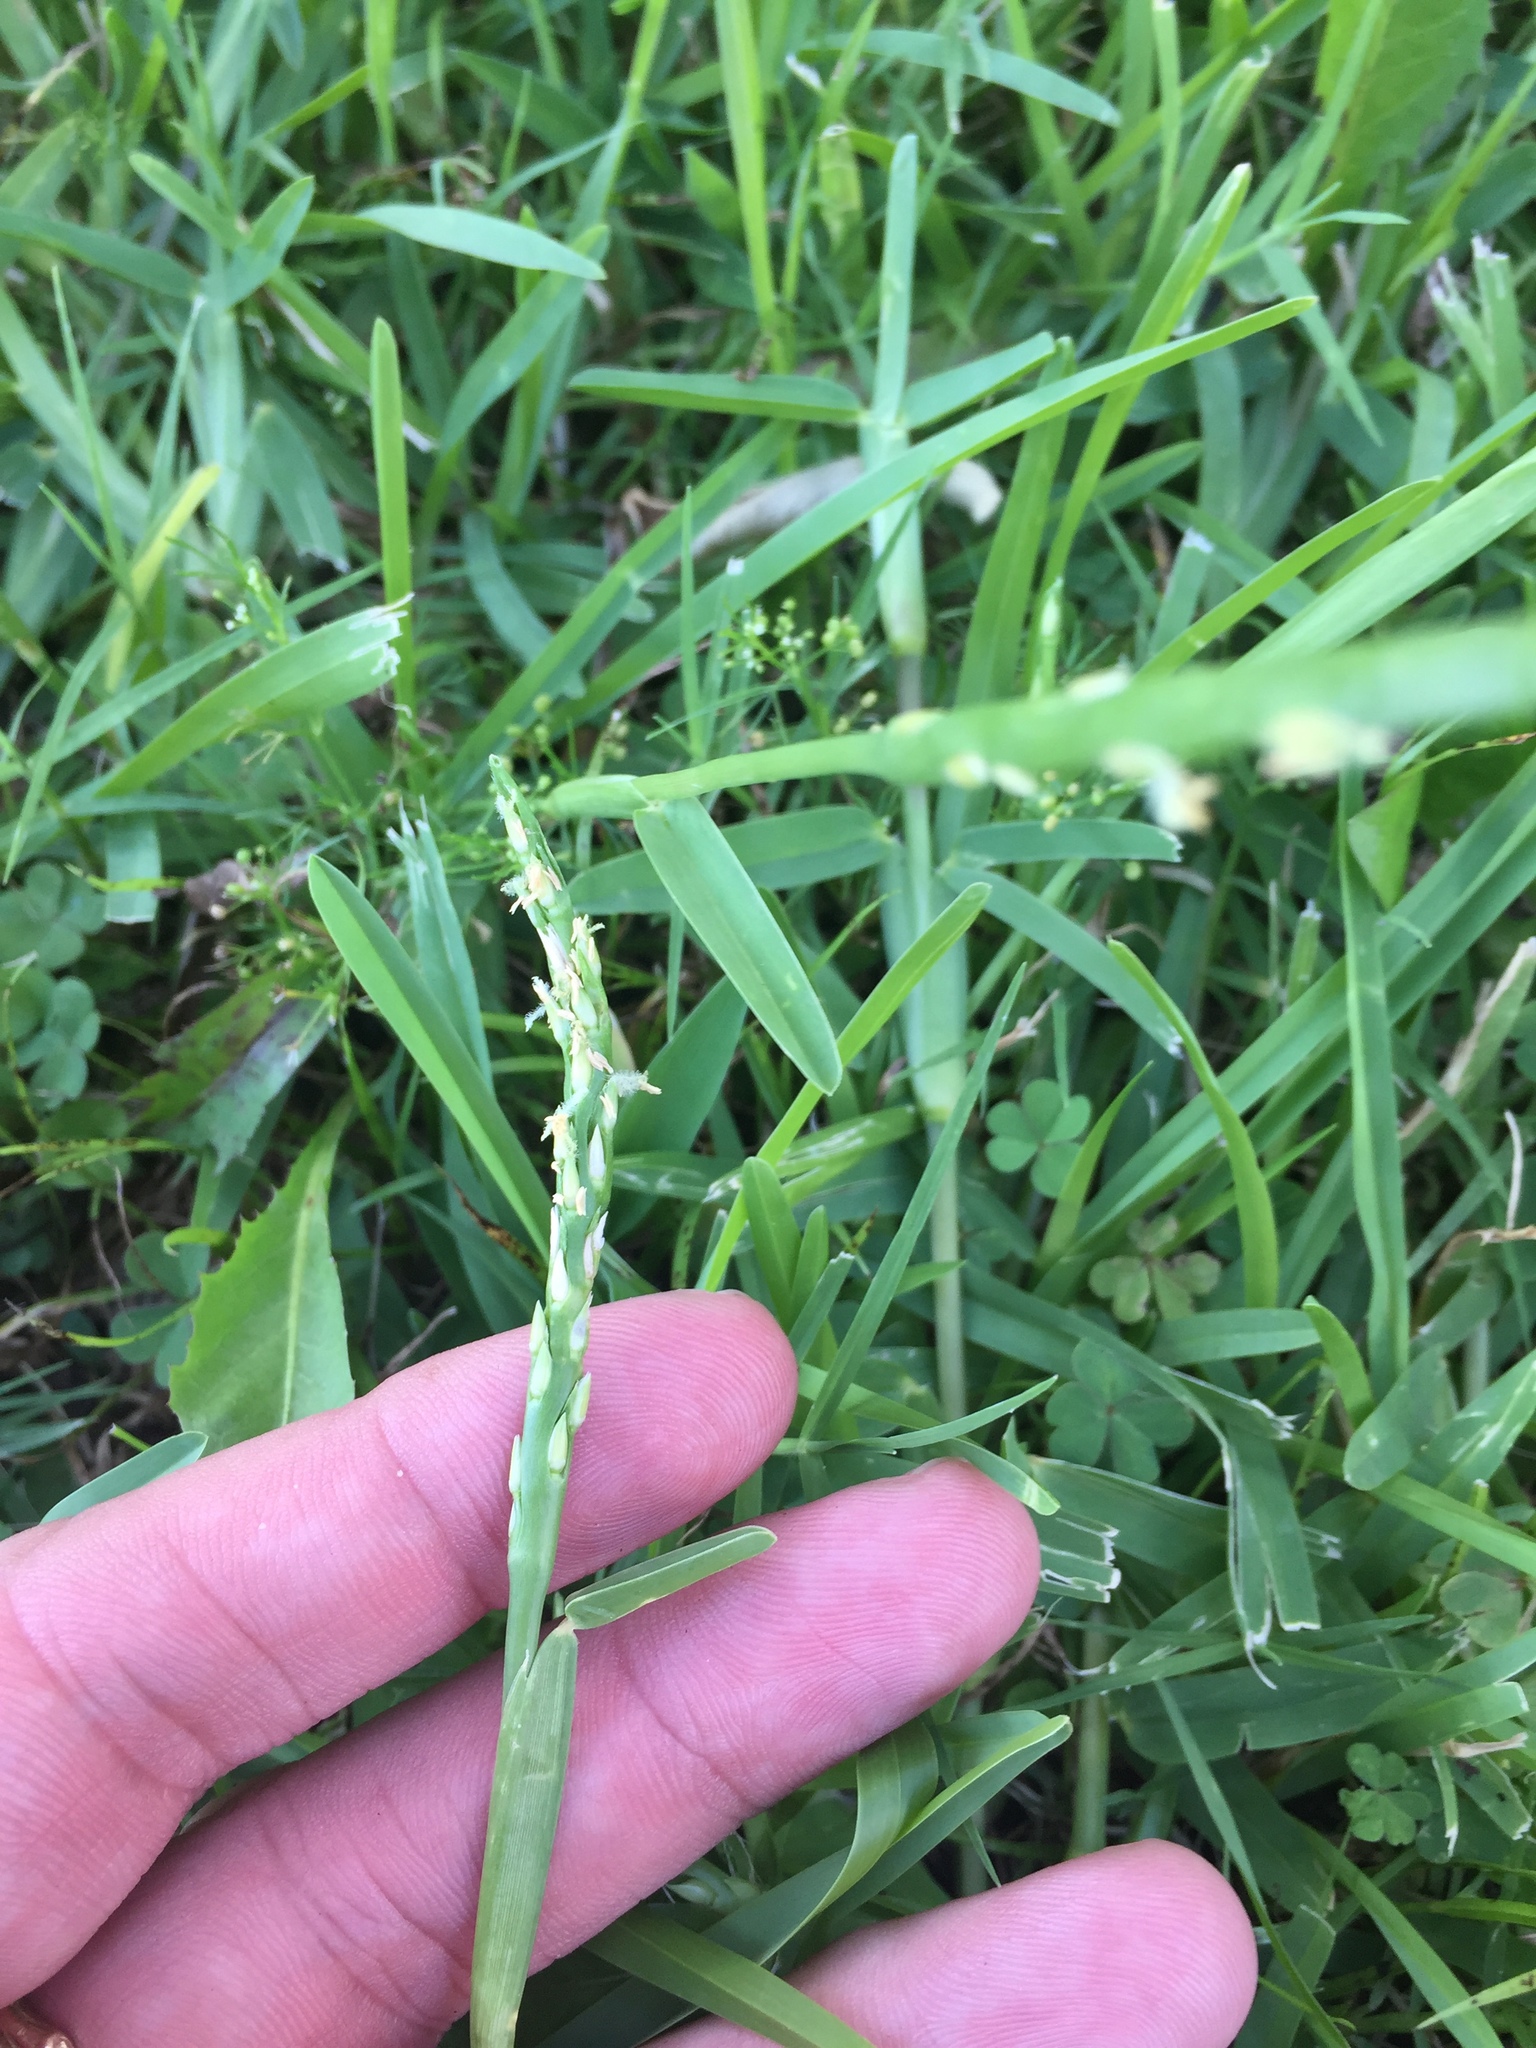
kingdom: Plantae
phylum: Tracheophyta
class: Liliopsida
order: Poales
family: Poaceae
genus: Stenotaphrum
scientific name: Stenotaphrum secundatum
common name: St. augustine grass
